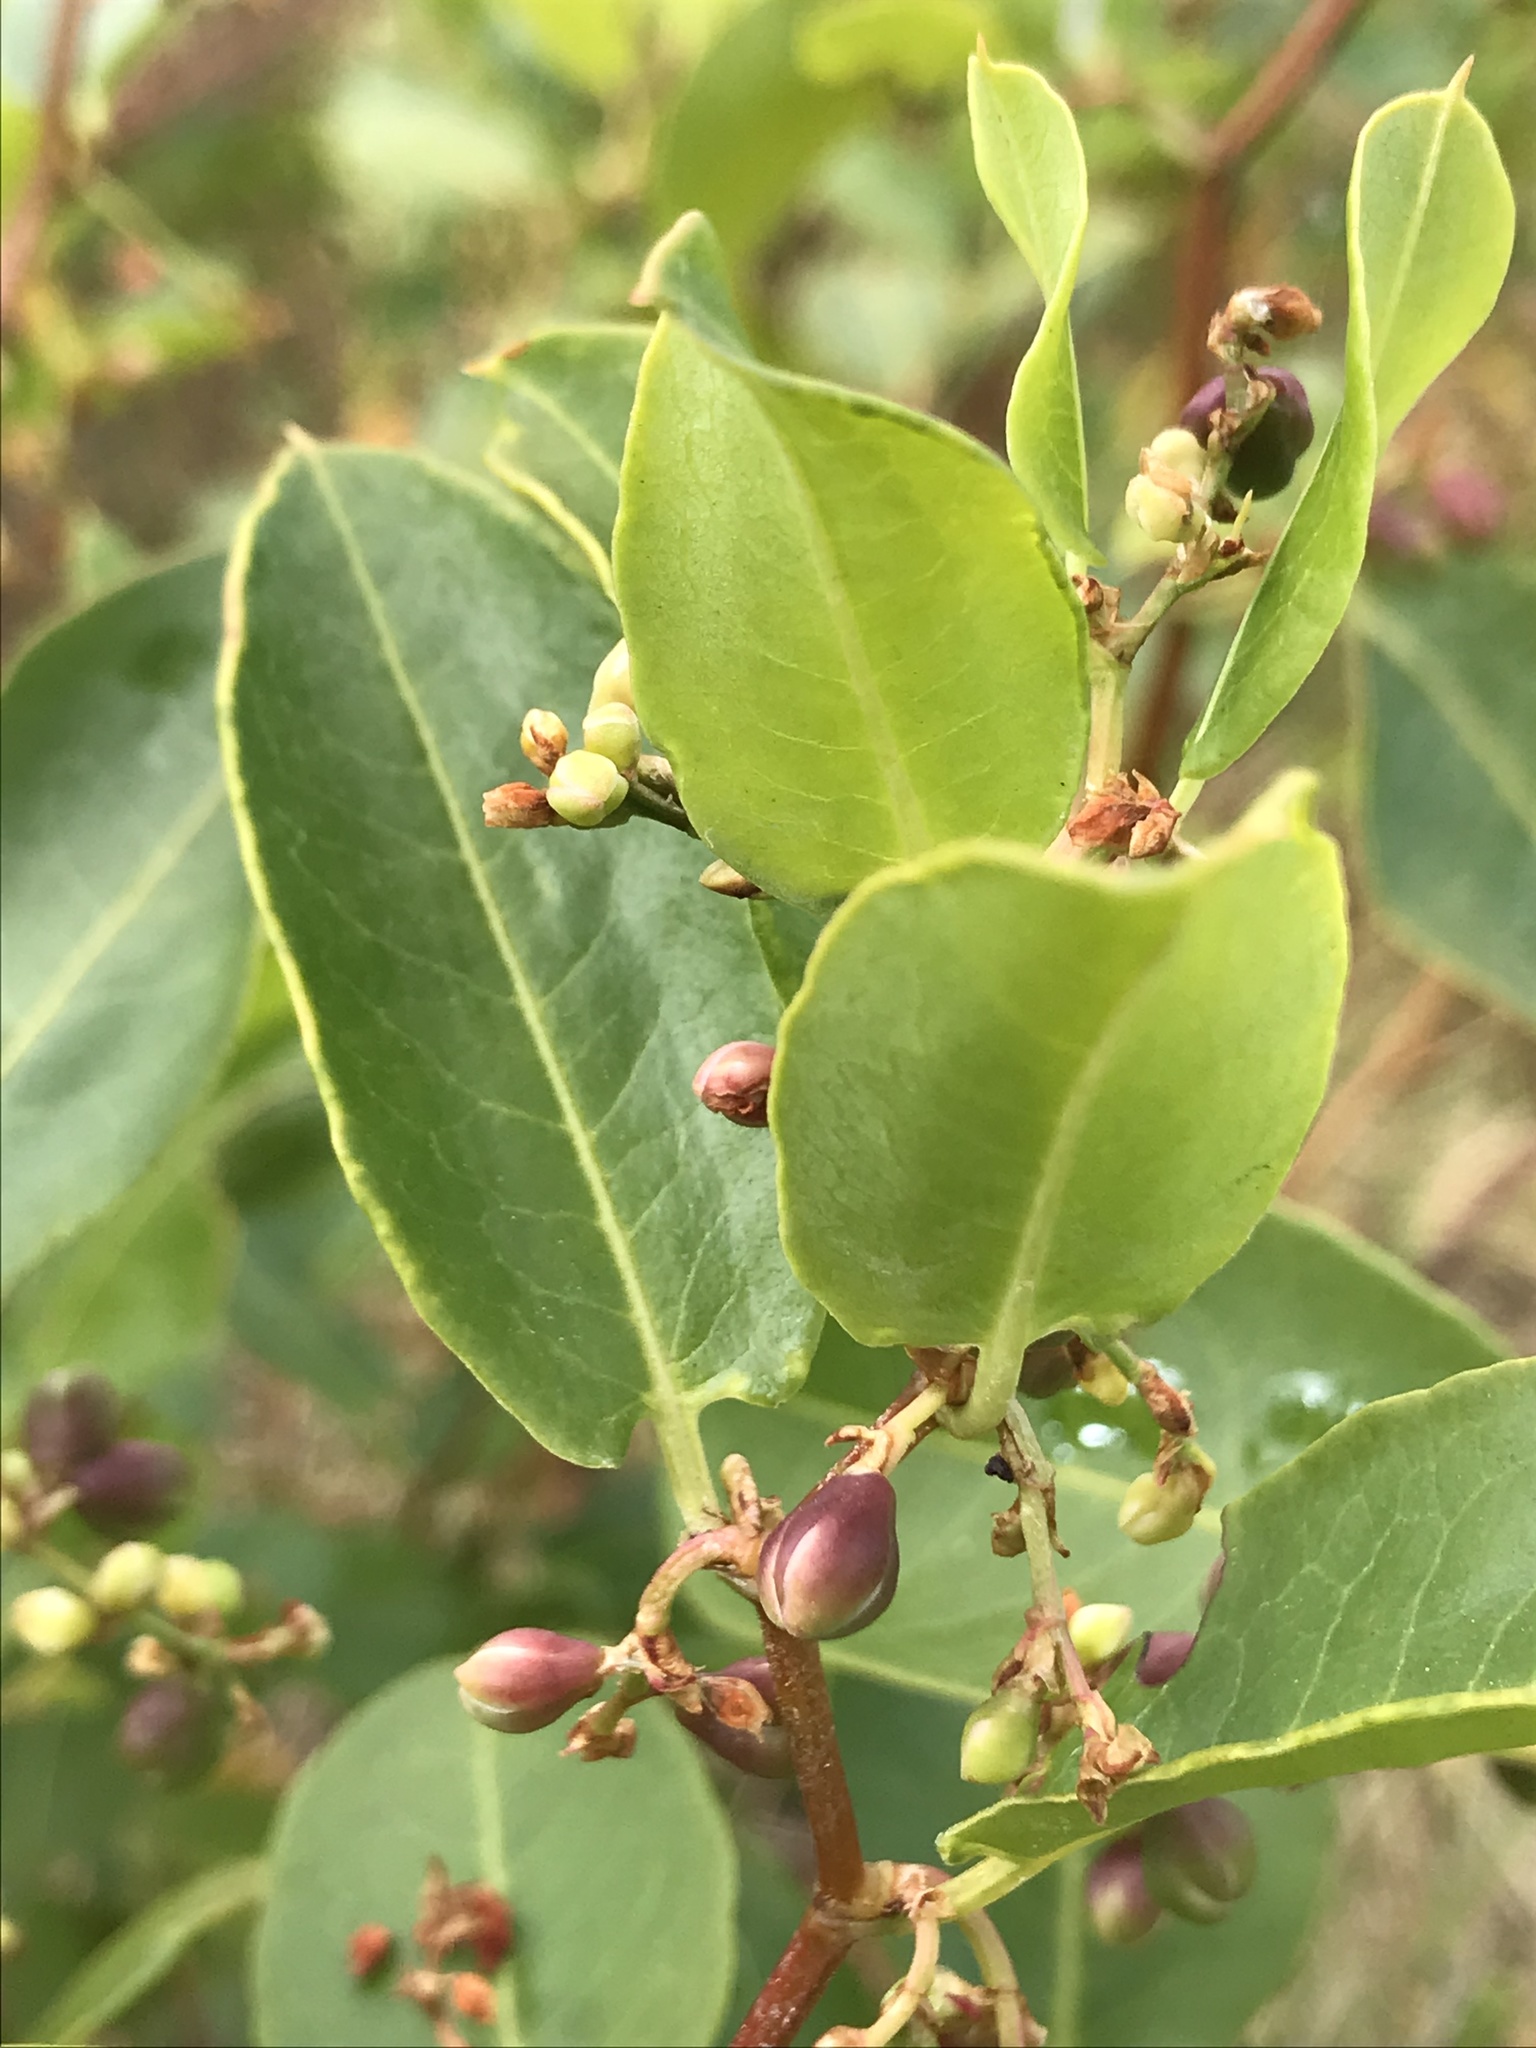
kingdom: Plantae
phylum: Tracheophyta
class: Magnoliopsida
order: Caryophyllales
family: Polygonaceae
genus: Muehlenbeckia
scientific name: Muehlenbeckia tamnifolia
